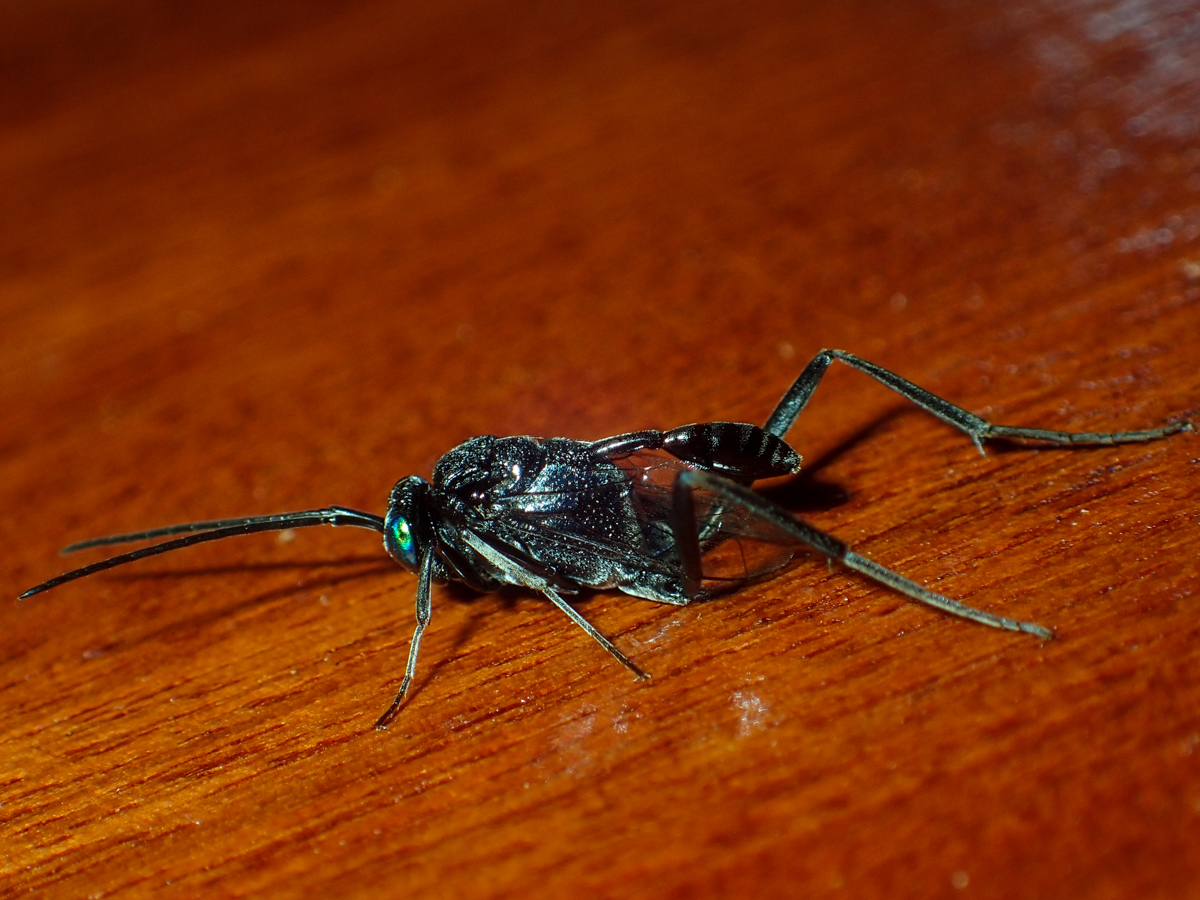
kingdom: Animalia
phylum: Arthropoda
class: Insecta
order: Hymenoptera
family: Evaniidae
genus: Evania
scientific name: Evania appendigaster
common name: Ensign wasp
